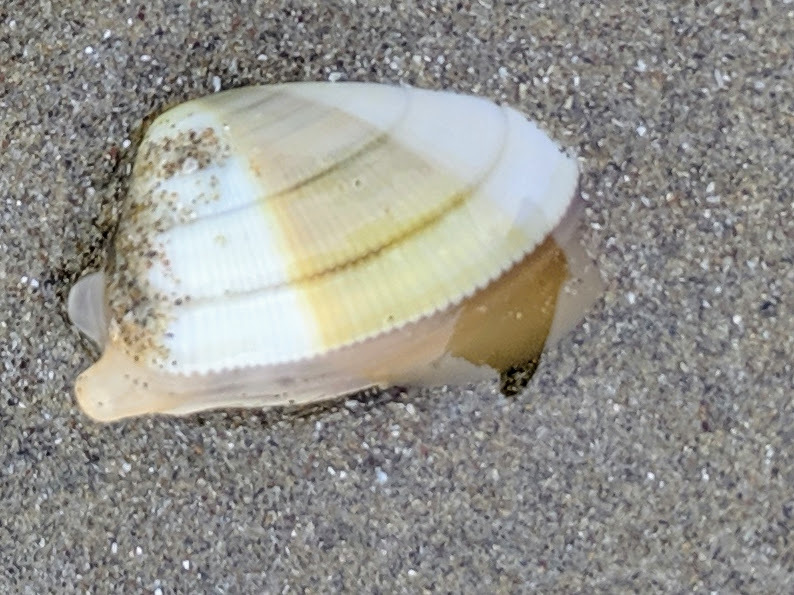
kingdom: Animalia
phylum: Mollusca
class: Bivalvia
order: Cardiida
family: Donacidae
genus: Donax
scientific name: Donax gouldii
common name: Gould beanclam
